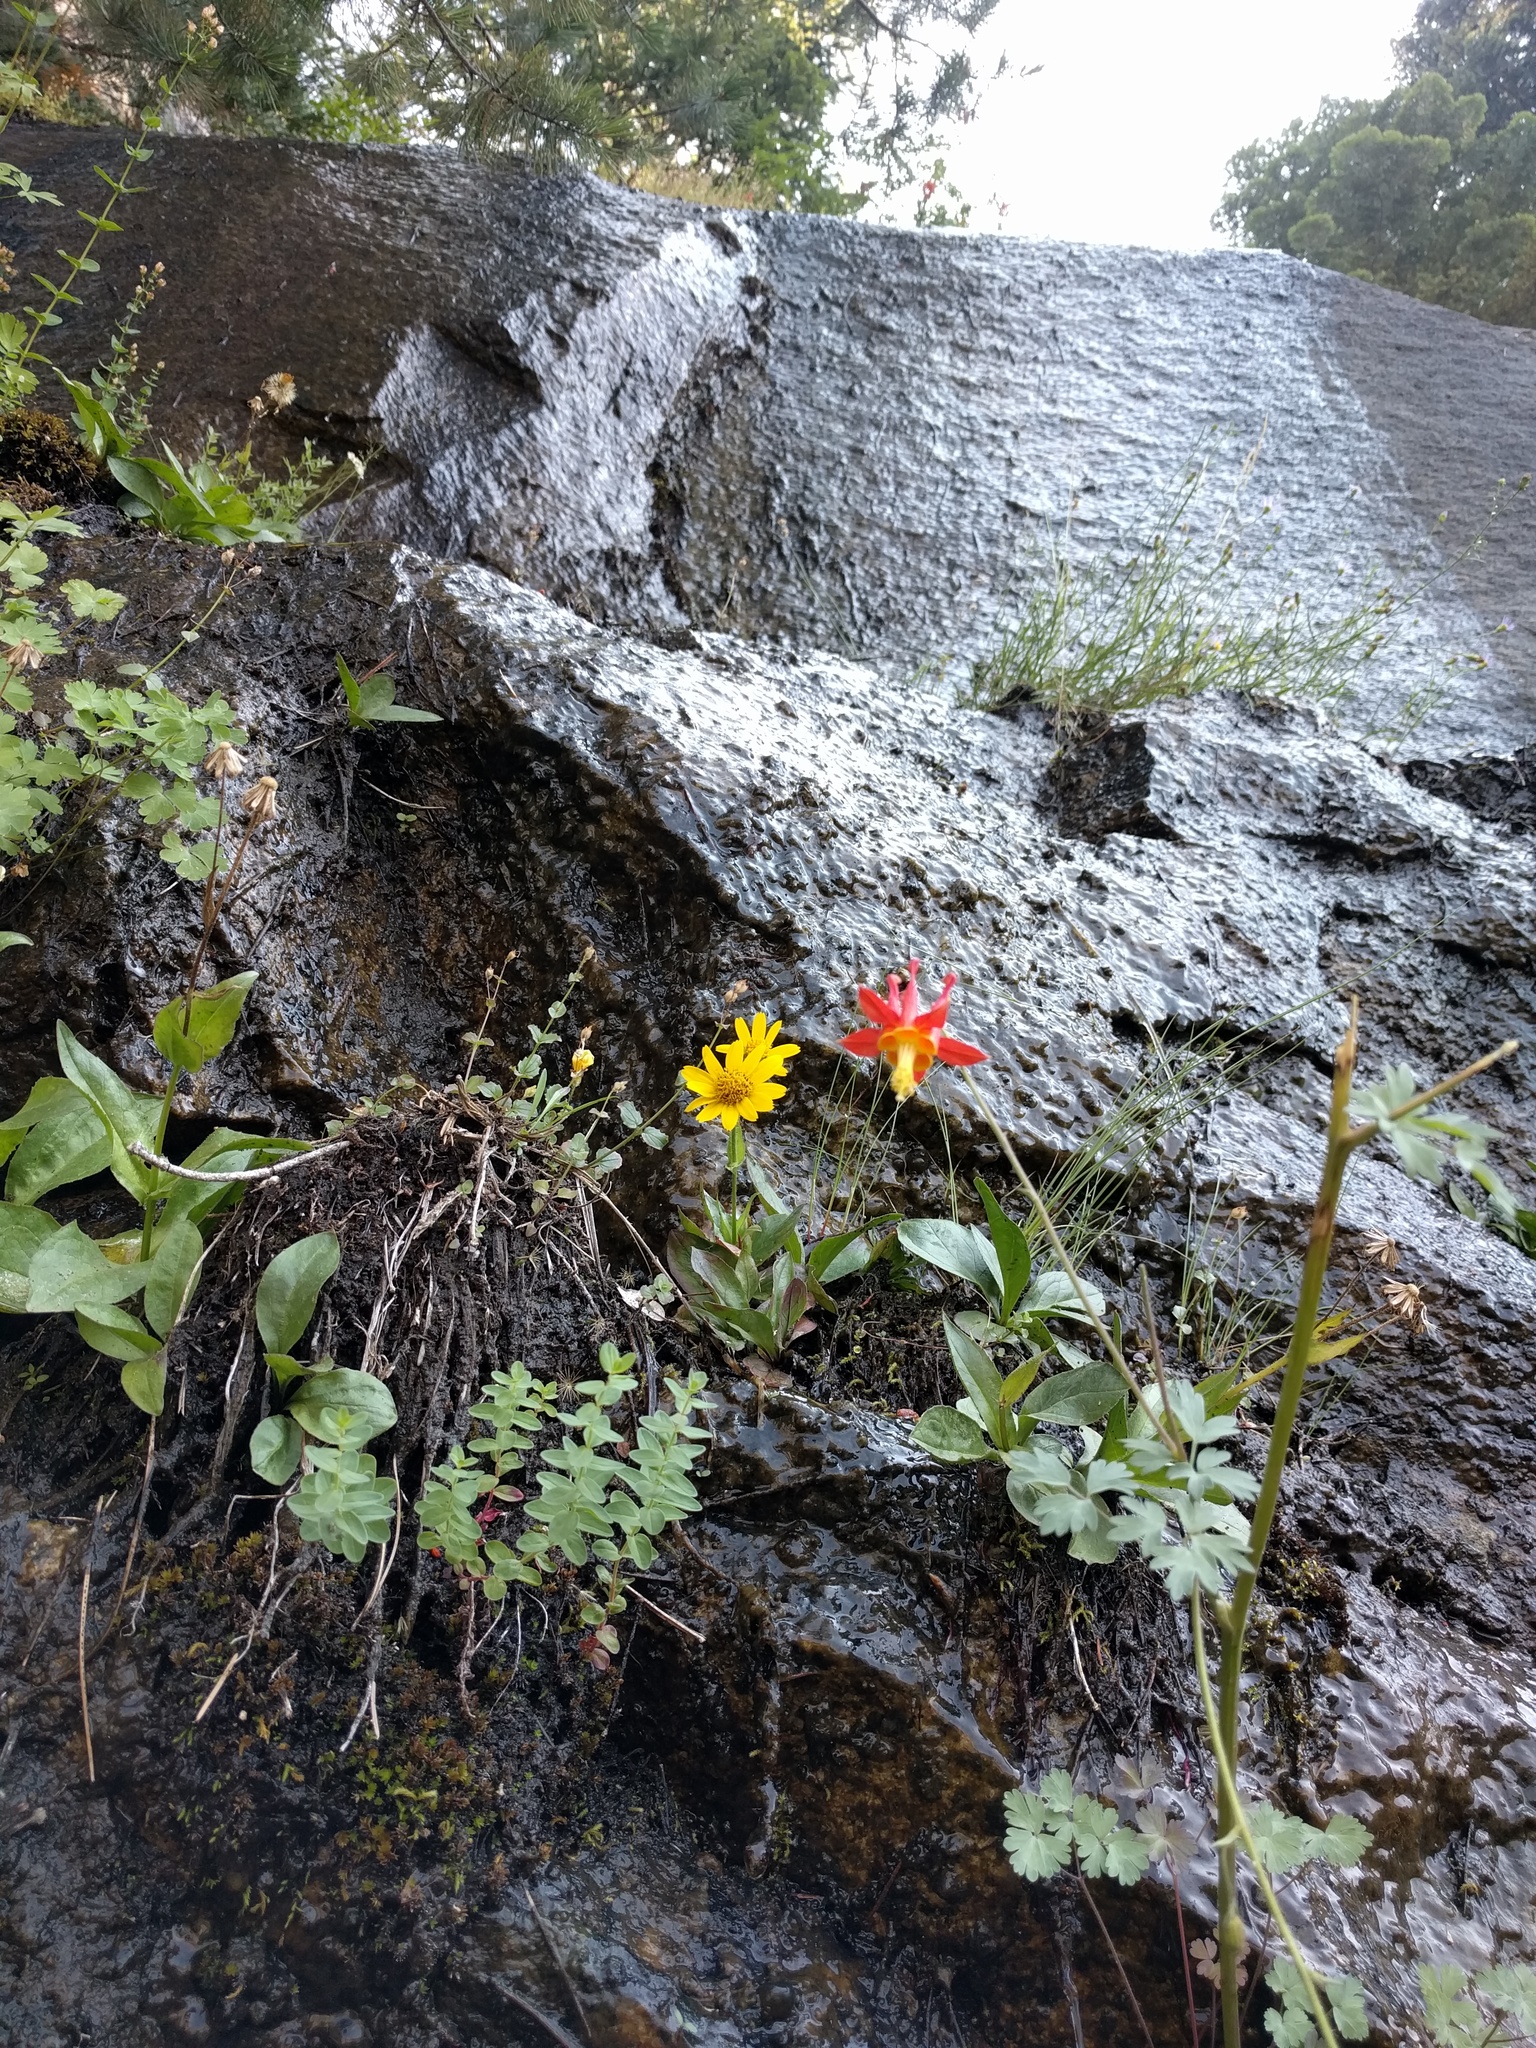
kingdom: Plantae
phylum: Tracheophyta
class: Magnoliopsida
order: Ranunculales
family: Ranunculaceae
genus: Aquilegia
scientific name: Aquilegia formosa
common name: Sitka columbine
